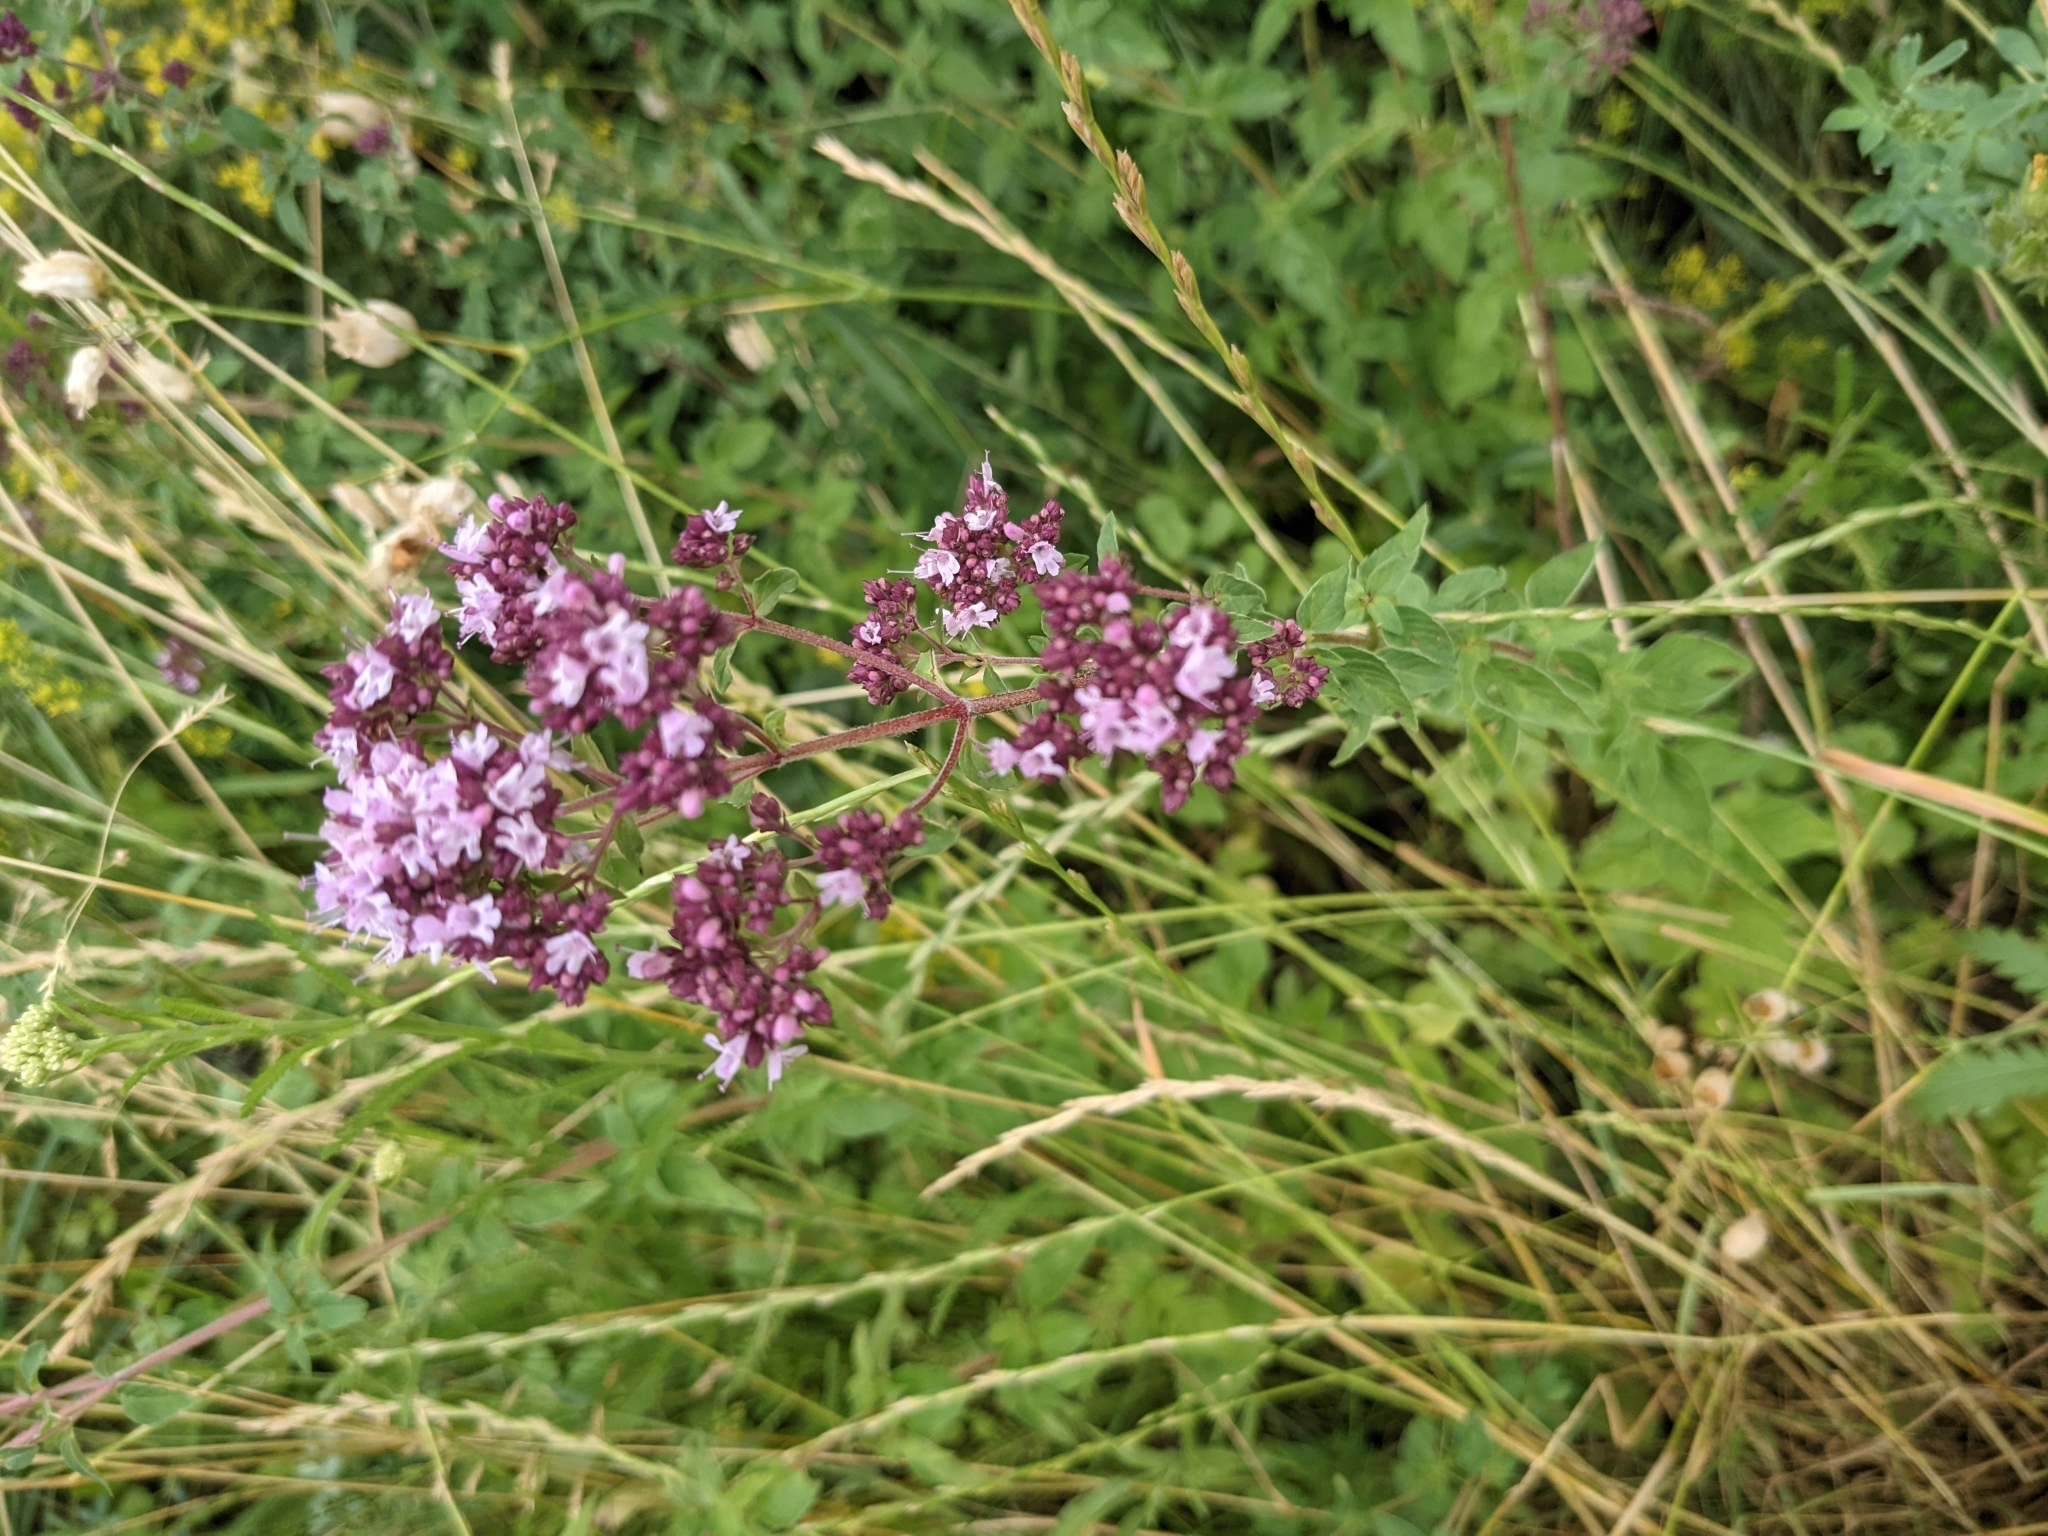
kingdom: Plantae
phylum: Tracheophyta
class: Magnoliopsida
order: Lamiales
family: Lamiaceae
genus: Origanum
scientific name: Origanum vulgare
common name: Wild marjoram
